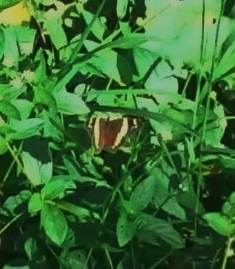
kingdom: Animalia
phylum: Arthropoda
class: Insecta
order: Lepidoptera
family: Nymphalidae
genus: Anartia
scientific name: Anartia fatima
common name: Banded peacock
